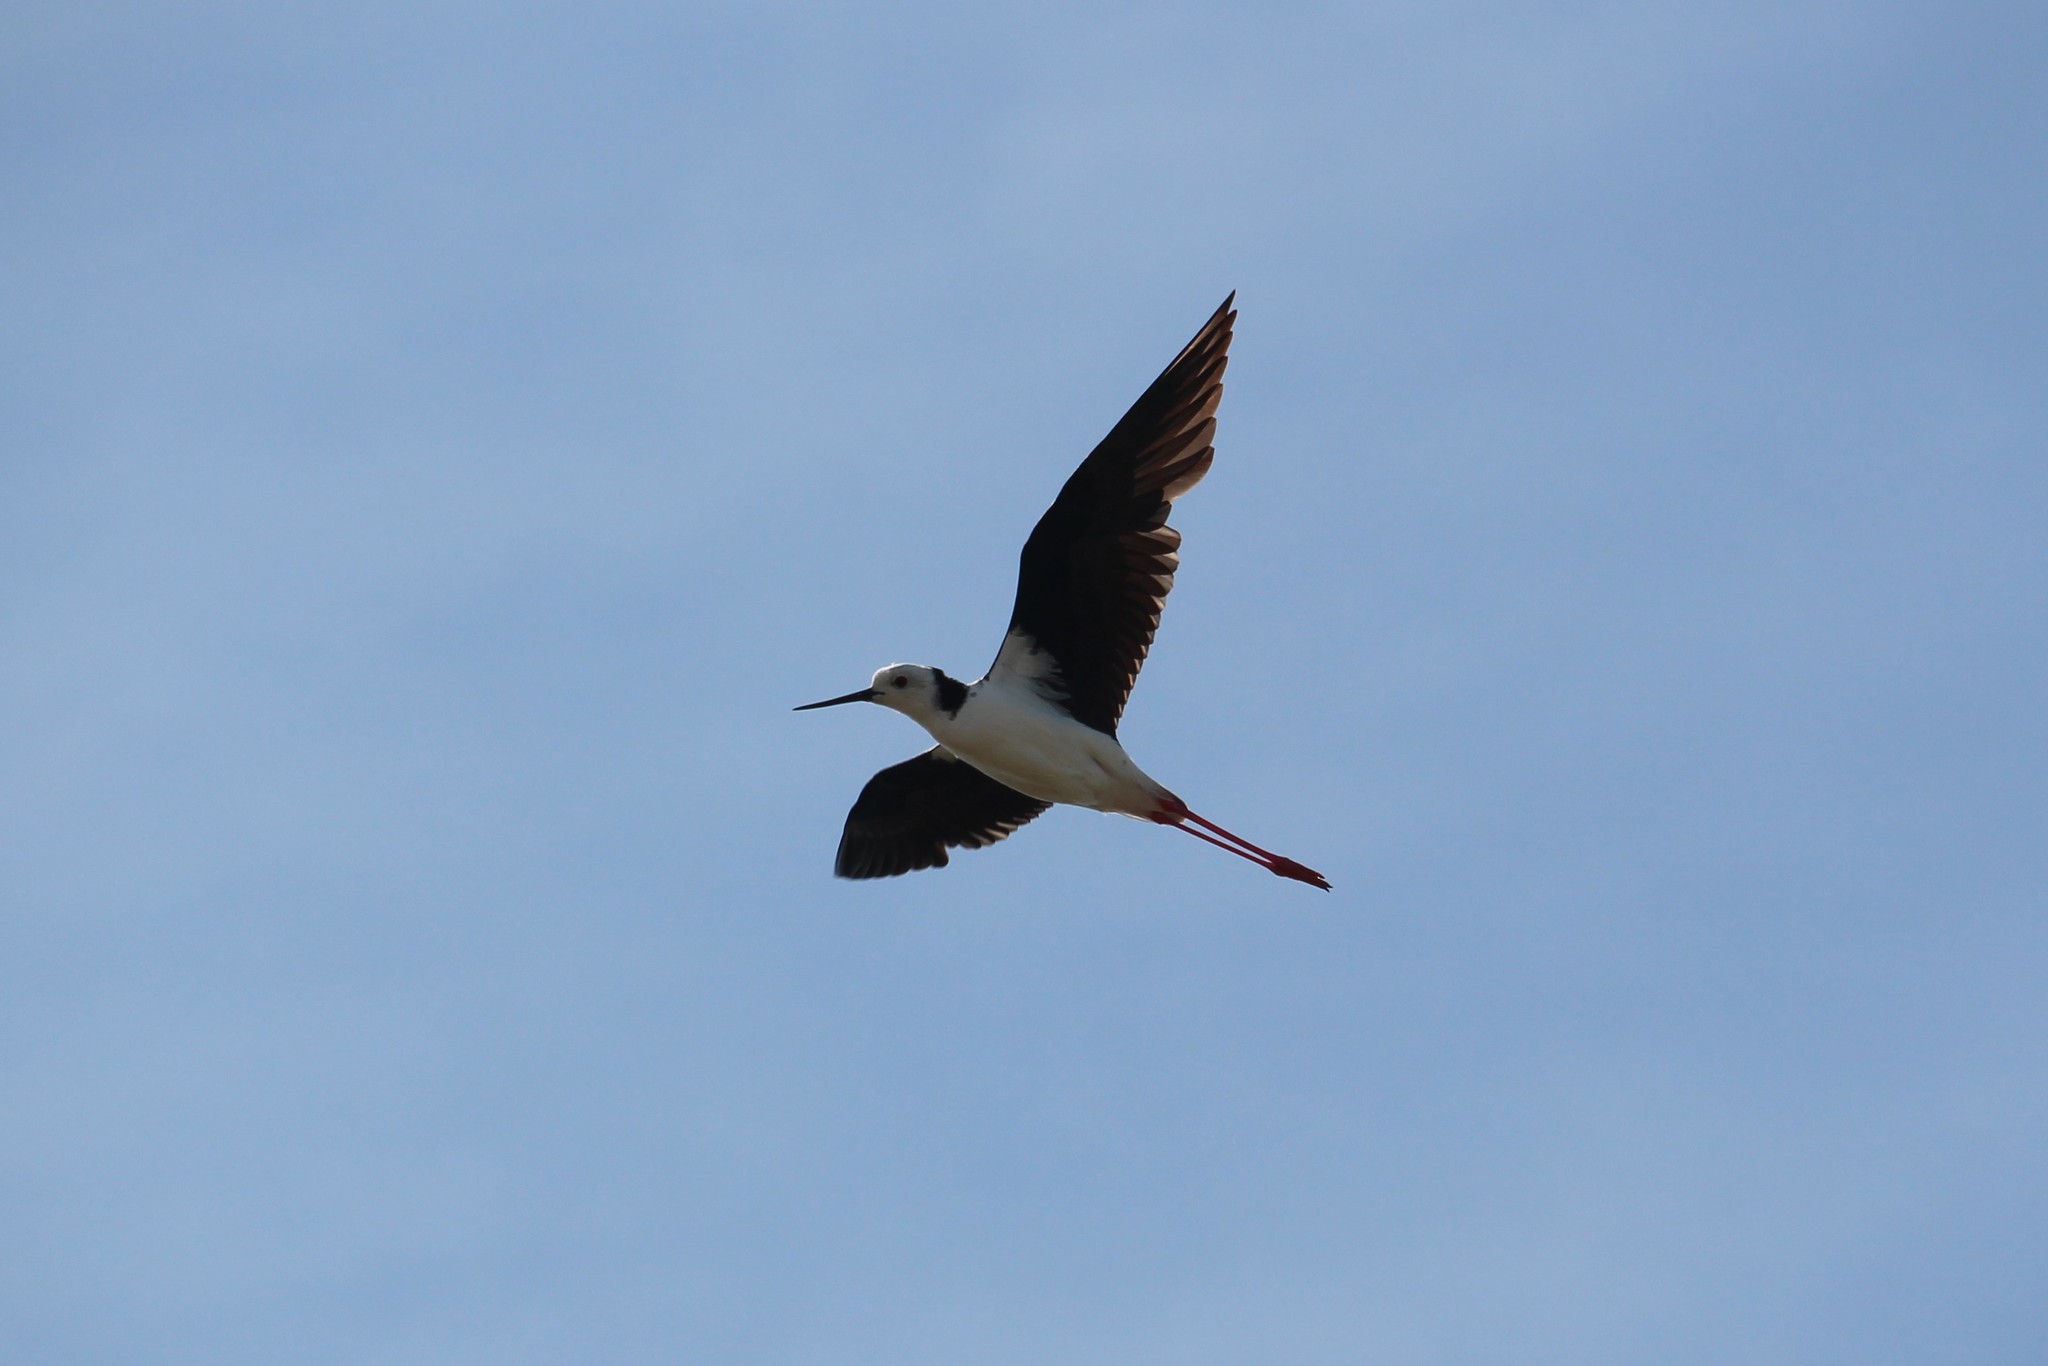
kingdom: Animalia
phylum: Chordata
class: Aves
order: Charadriiformes
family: Recurvirostridae
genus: Himantopus
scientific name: Himantopus leucocephalus
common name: White-headed stilt
